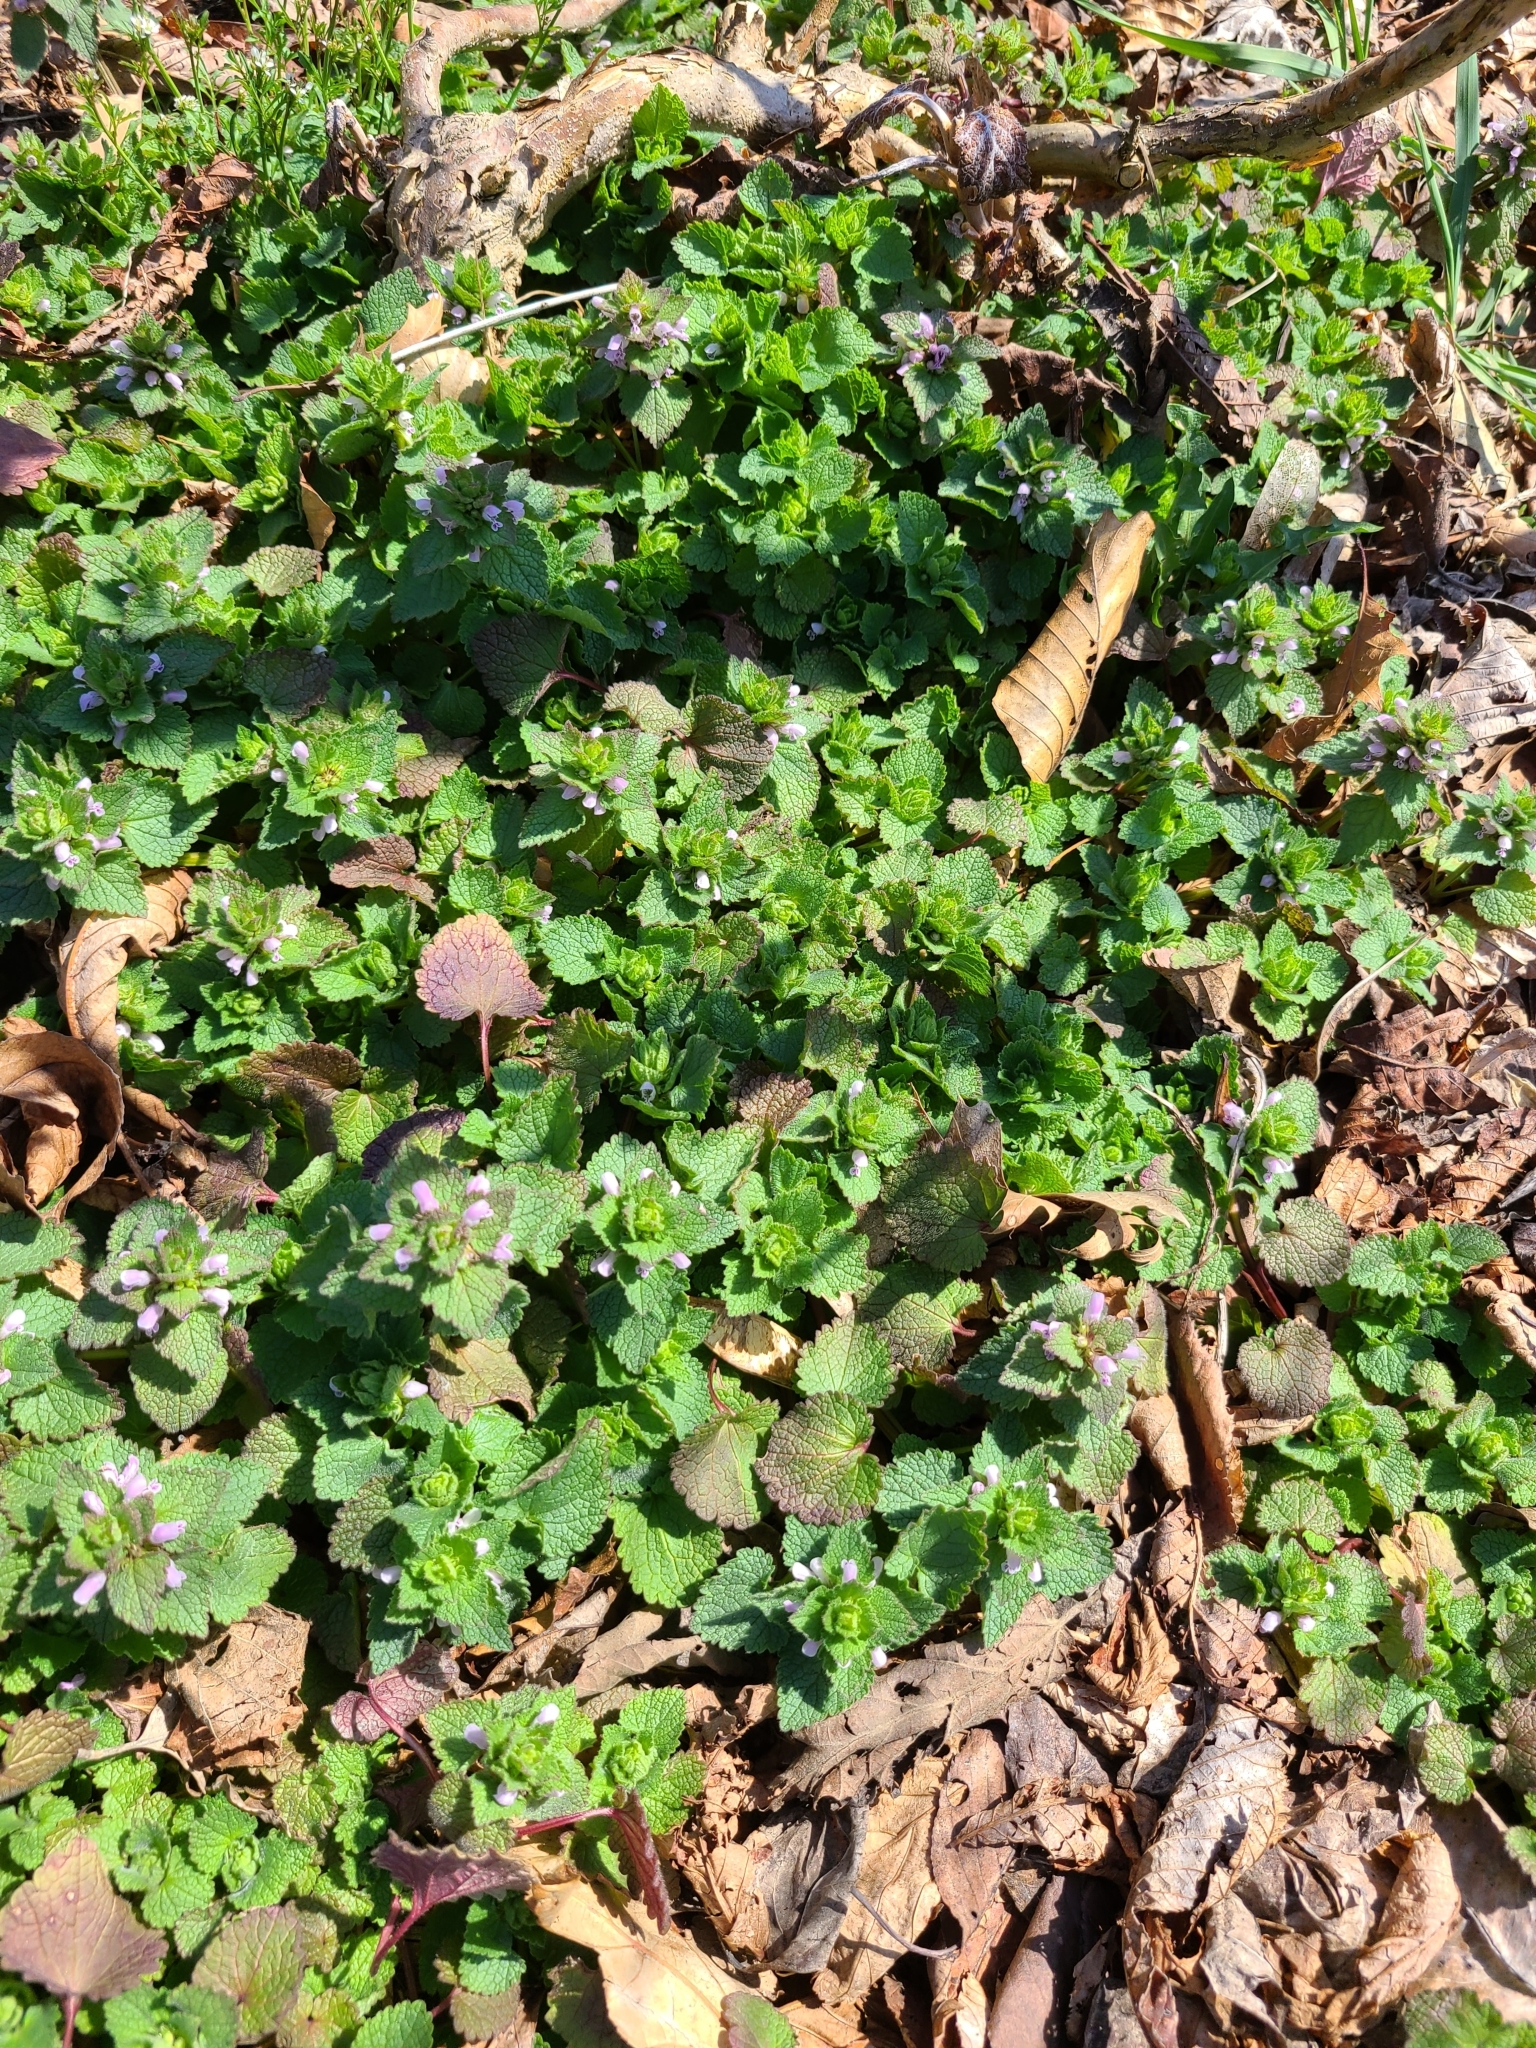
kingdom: Plantae
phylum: Tracheophyta
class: Magnoliopsida
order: Lamiales
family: Lamiaceae
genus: Lamium
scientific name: Lamium purpureum
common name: Red dead-nettle
